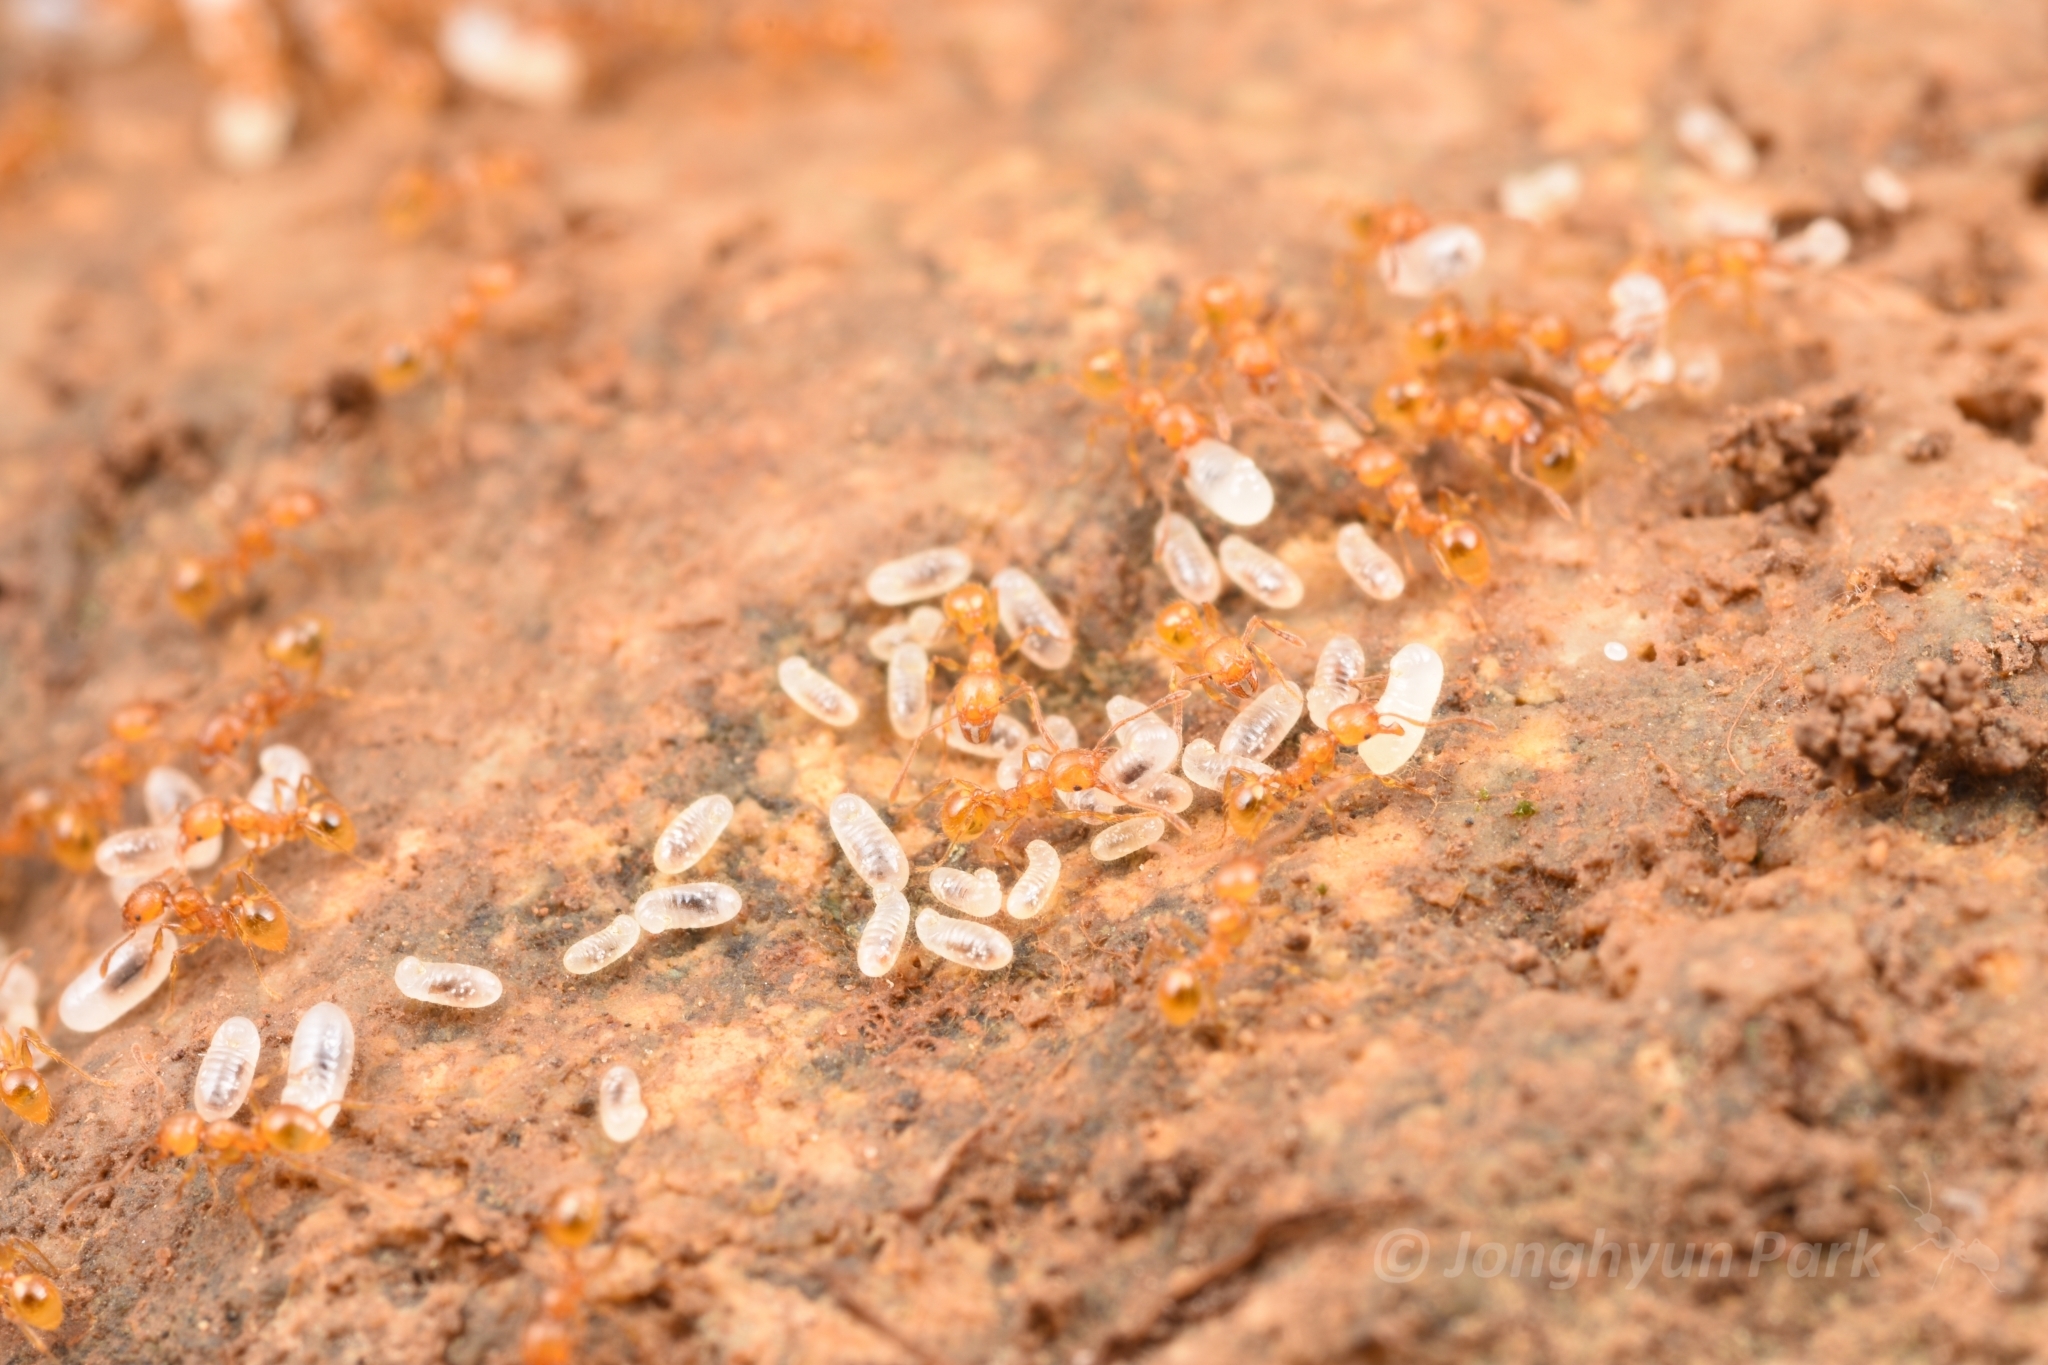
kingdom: Animalia
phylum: Arthropoda
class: Insecta
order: Hymenoptera
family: Formicidae
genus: Pheidole
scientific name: Pheidole fervida
